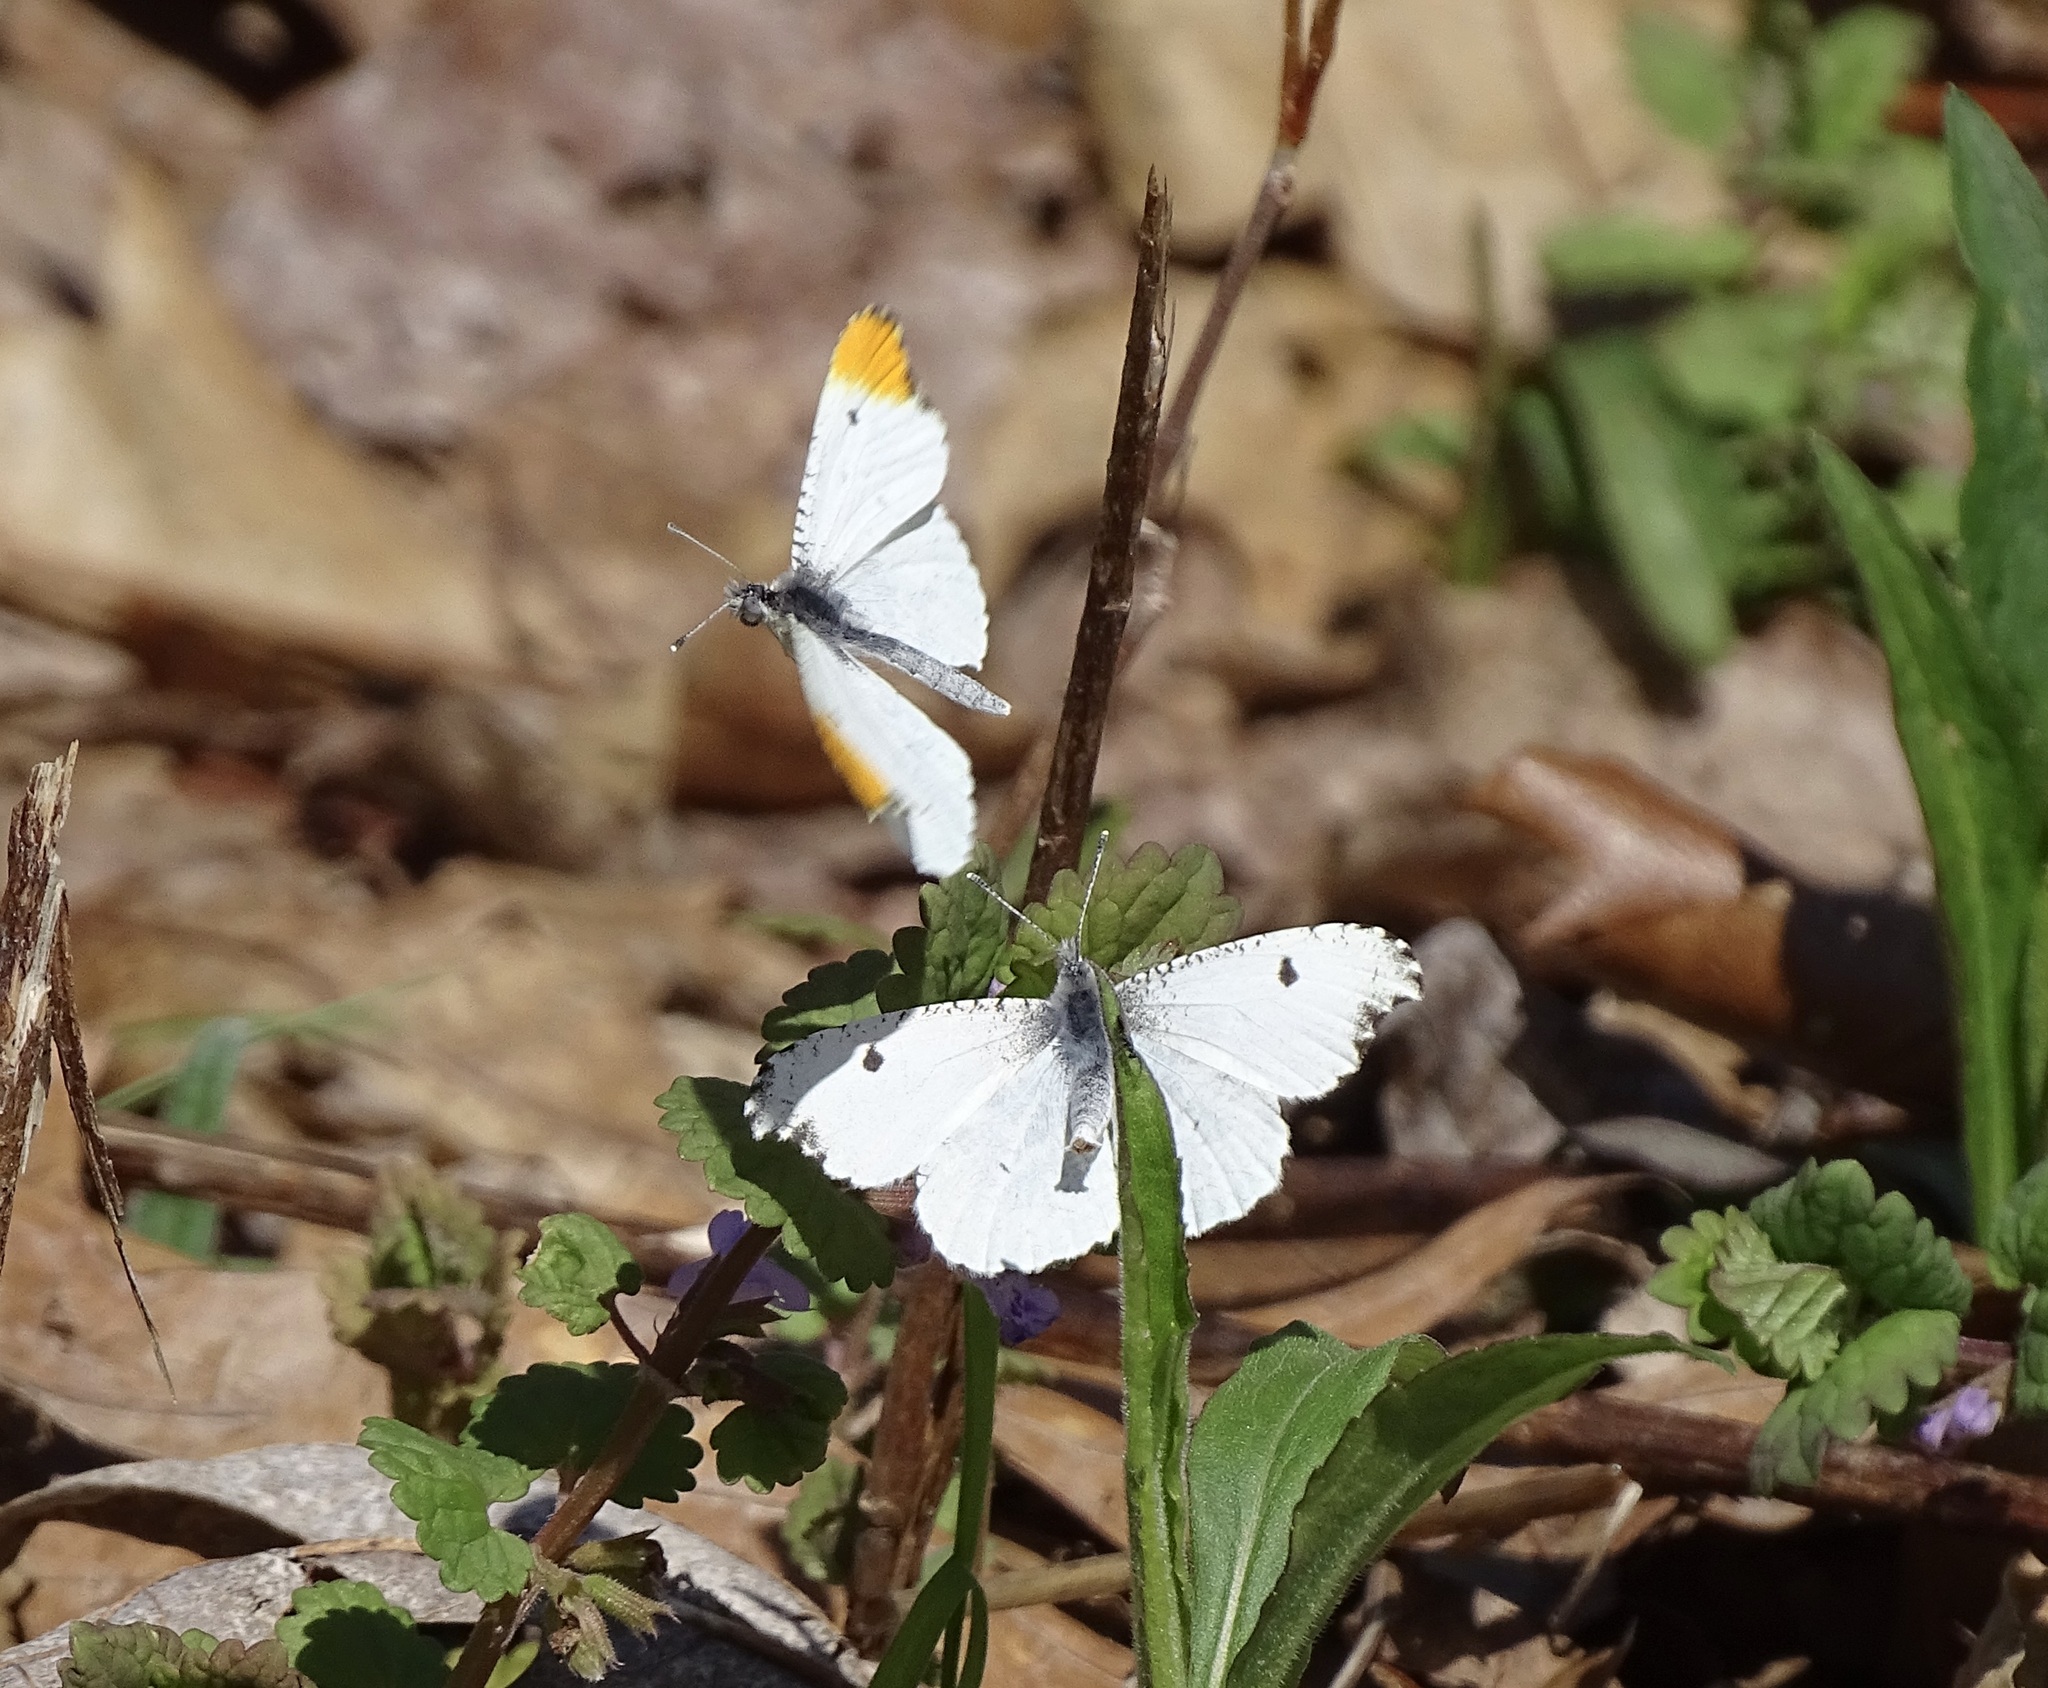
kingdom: Animalia
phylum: Arthropoda
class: Insecta
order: Lepidoptera
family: Pieridae
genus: Anthocharis
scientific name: Anthocharis midea
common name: Falcate orangetip
